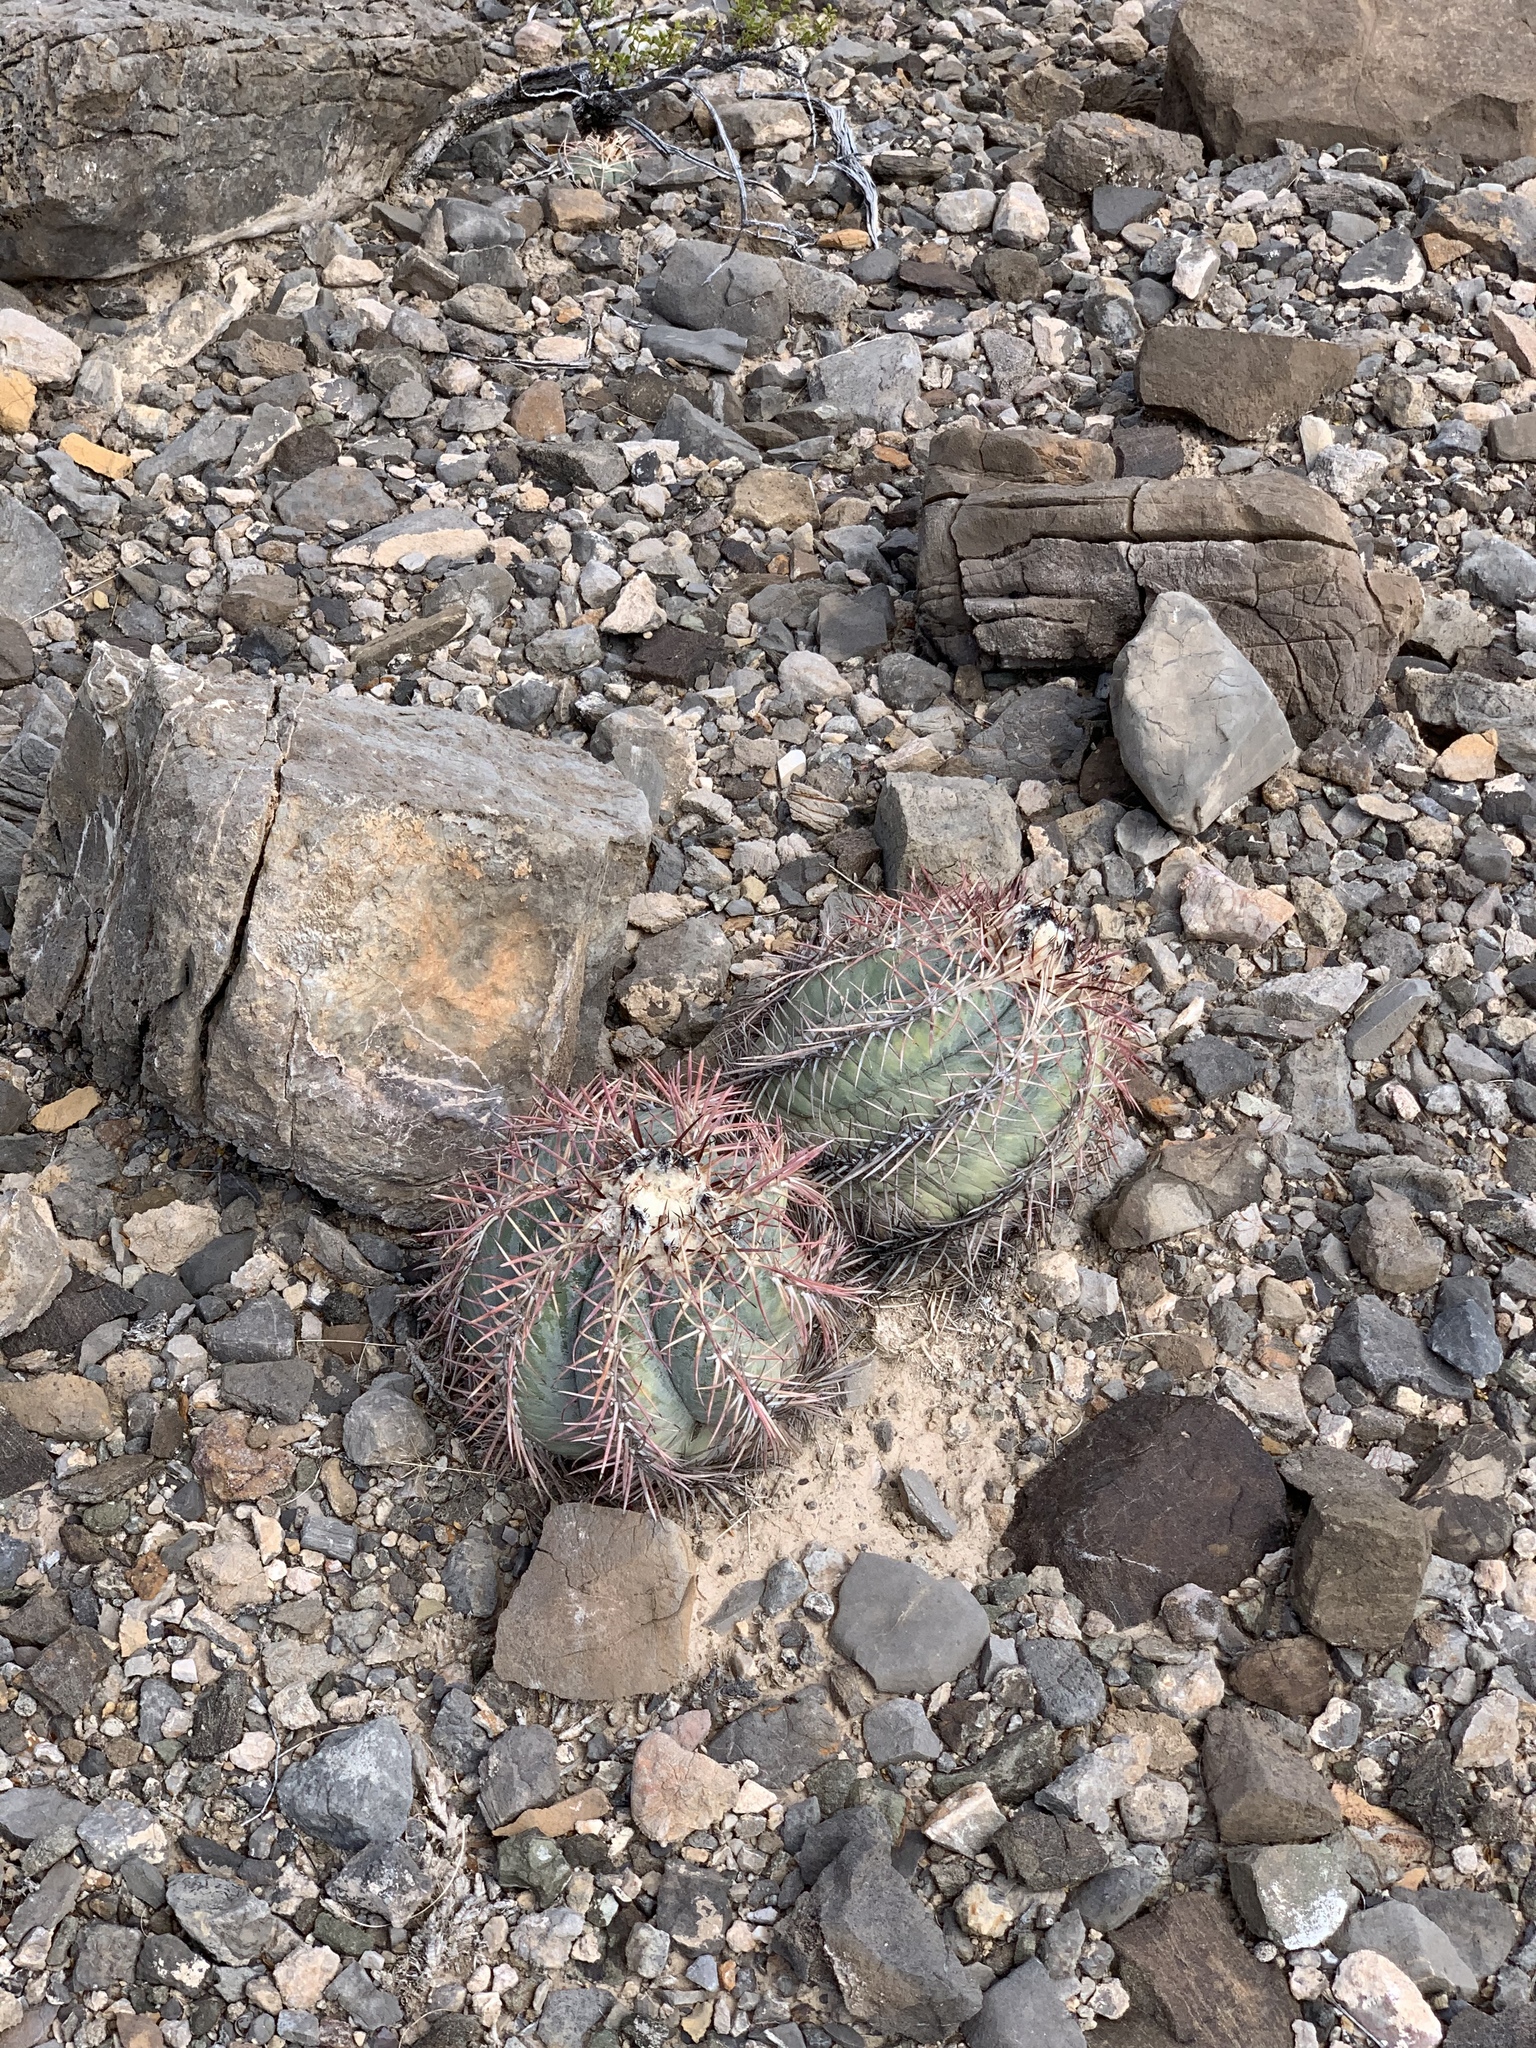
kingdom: Plantae
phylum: Tracheophyta
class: Magnoliopsida
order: Caryophyllales
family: Cactaceae
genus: Echinocactus
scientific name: Echinocactus horizonthalonius
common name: Devilshead
